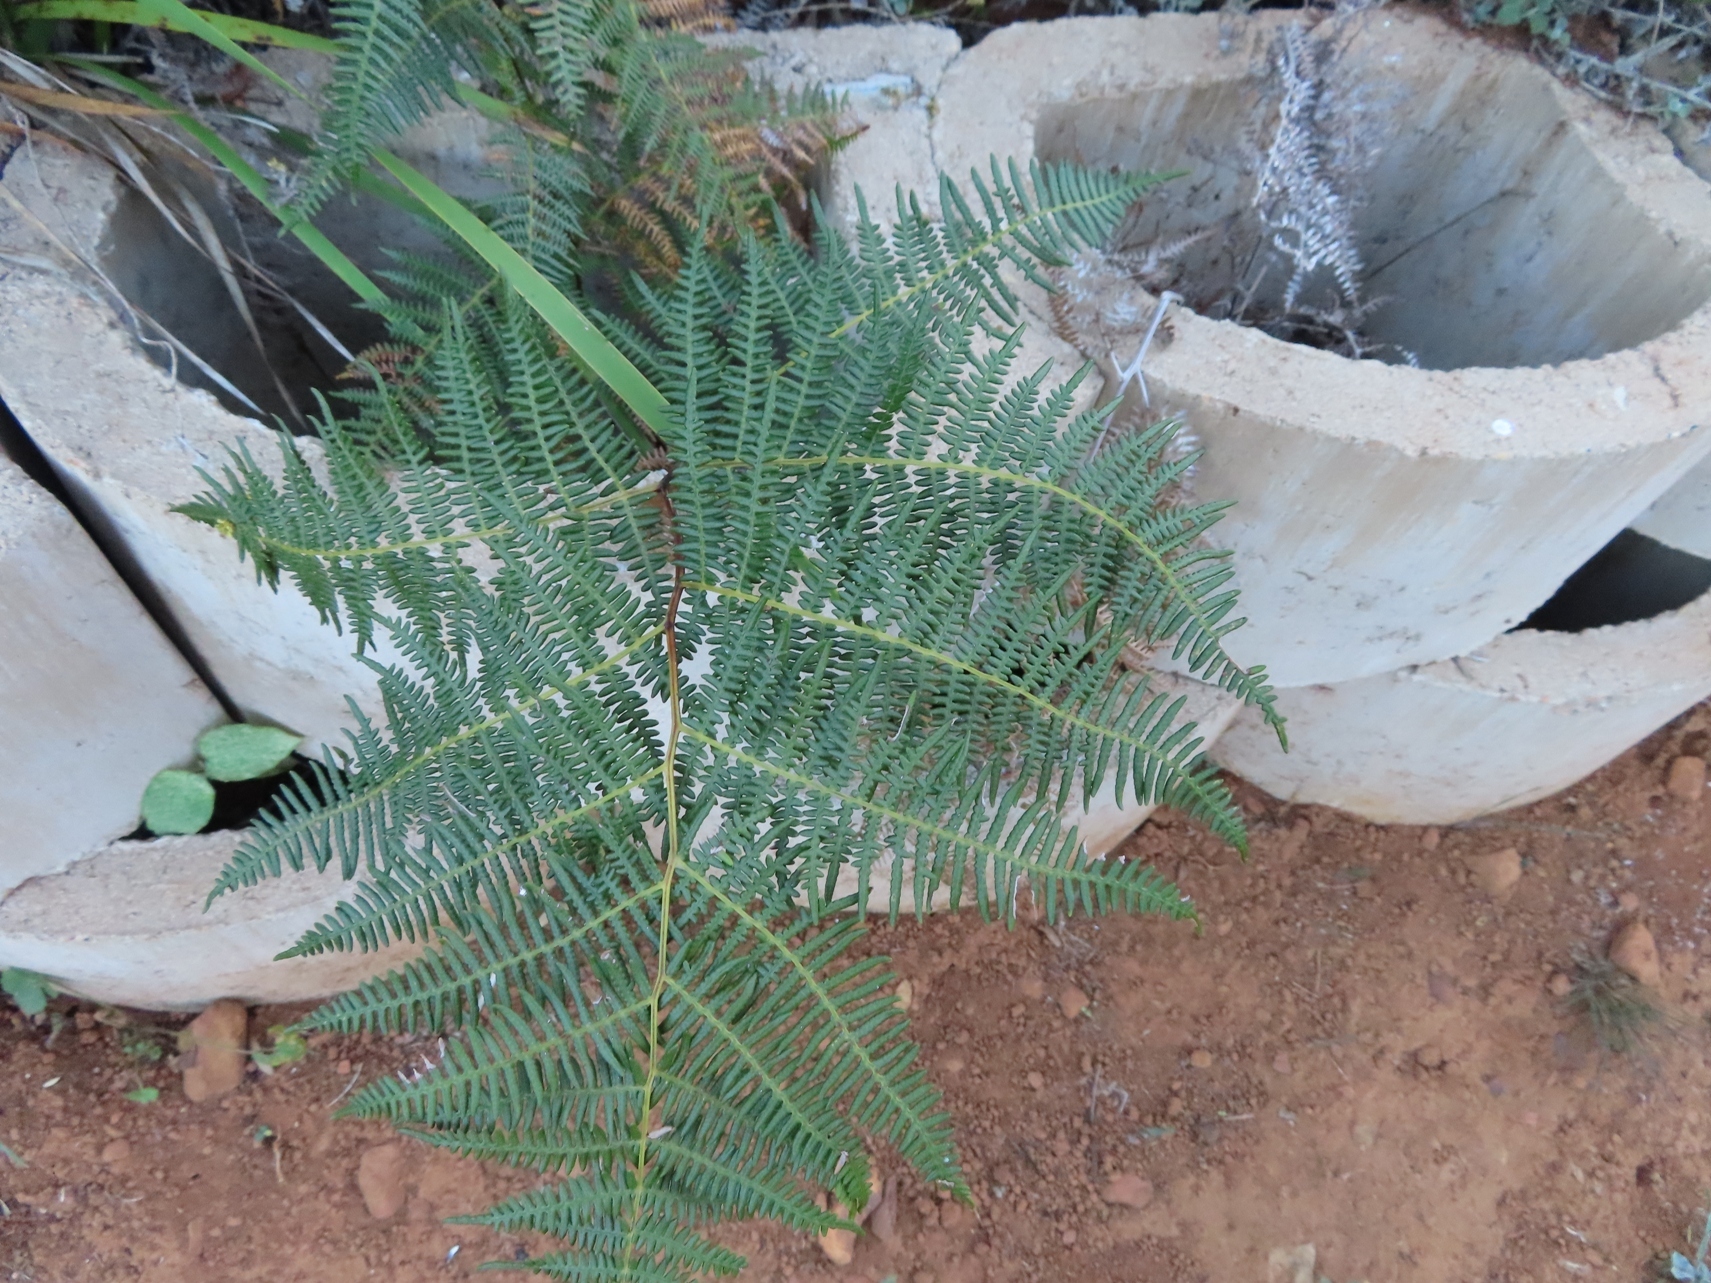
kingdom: Plantae
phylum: Tracheophyta
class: Polypodiopsida
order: Polypodiales
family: Dennstaedtiaceae
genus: Pteridium
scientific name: Pteridium aquilinum
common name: Bracken
